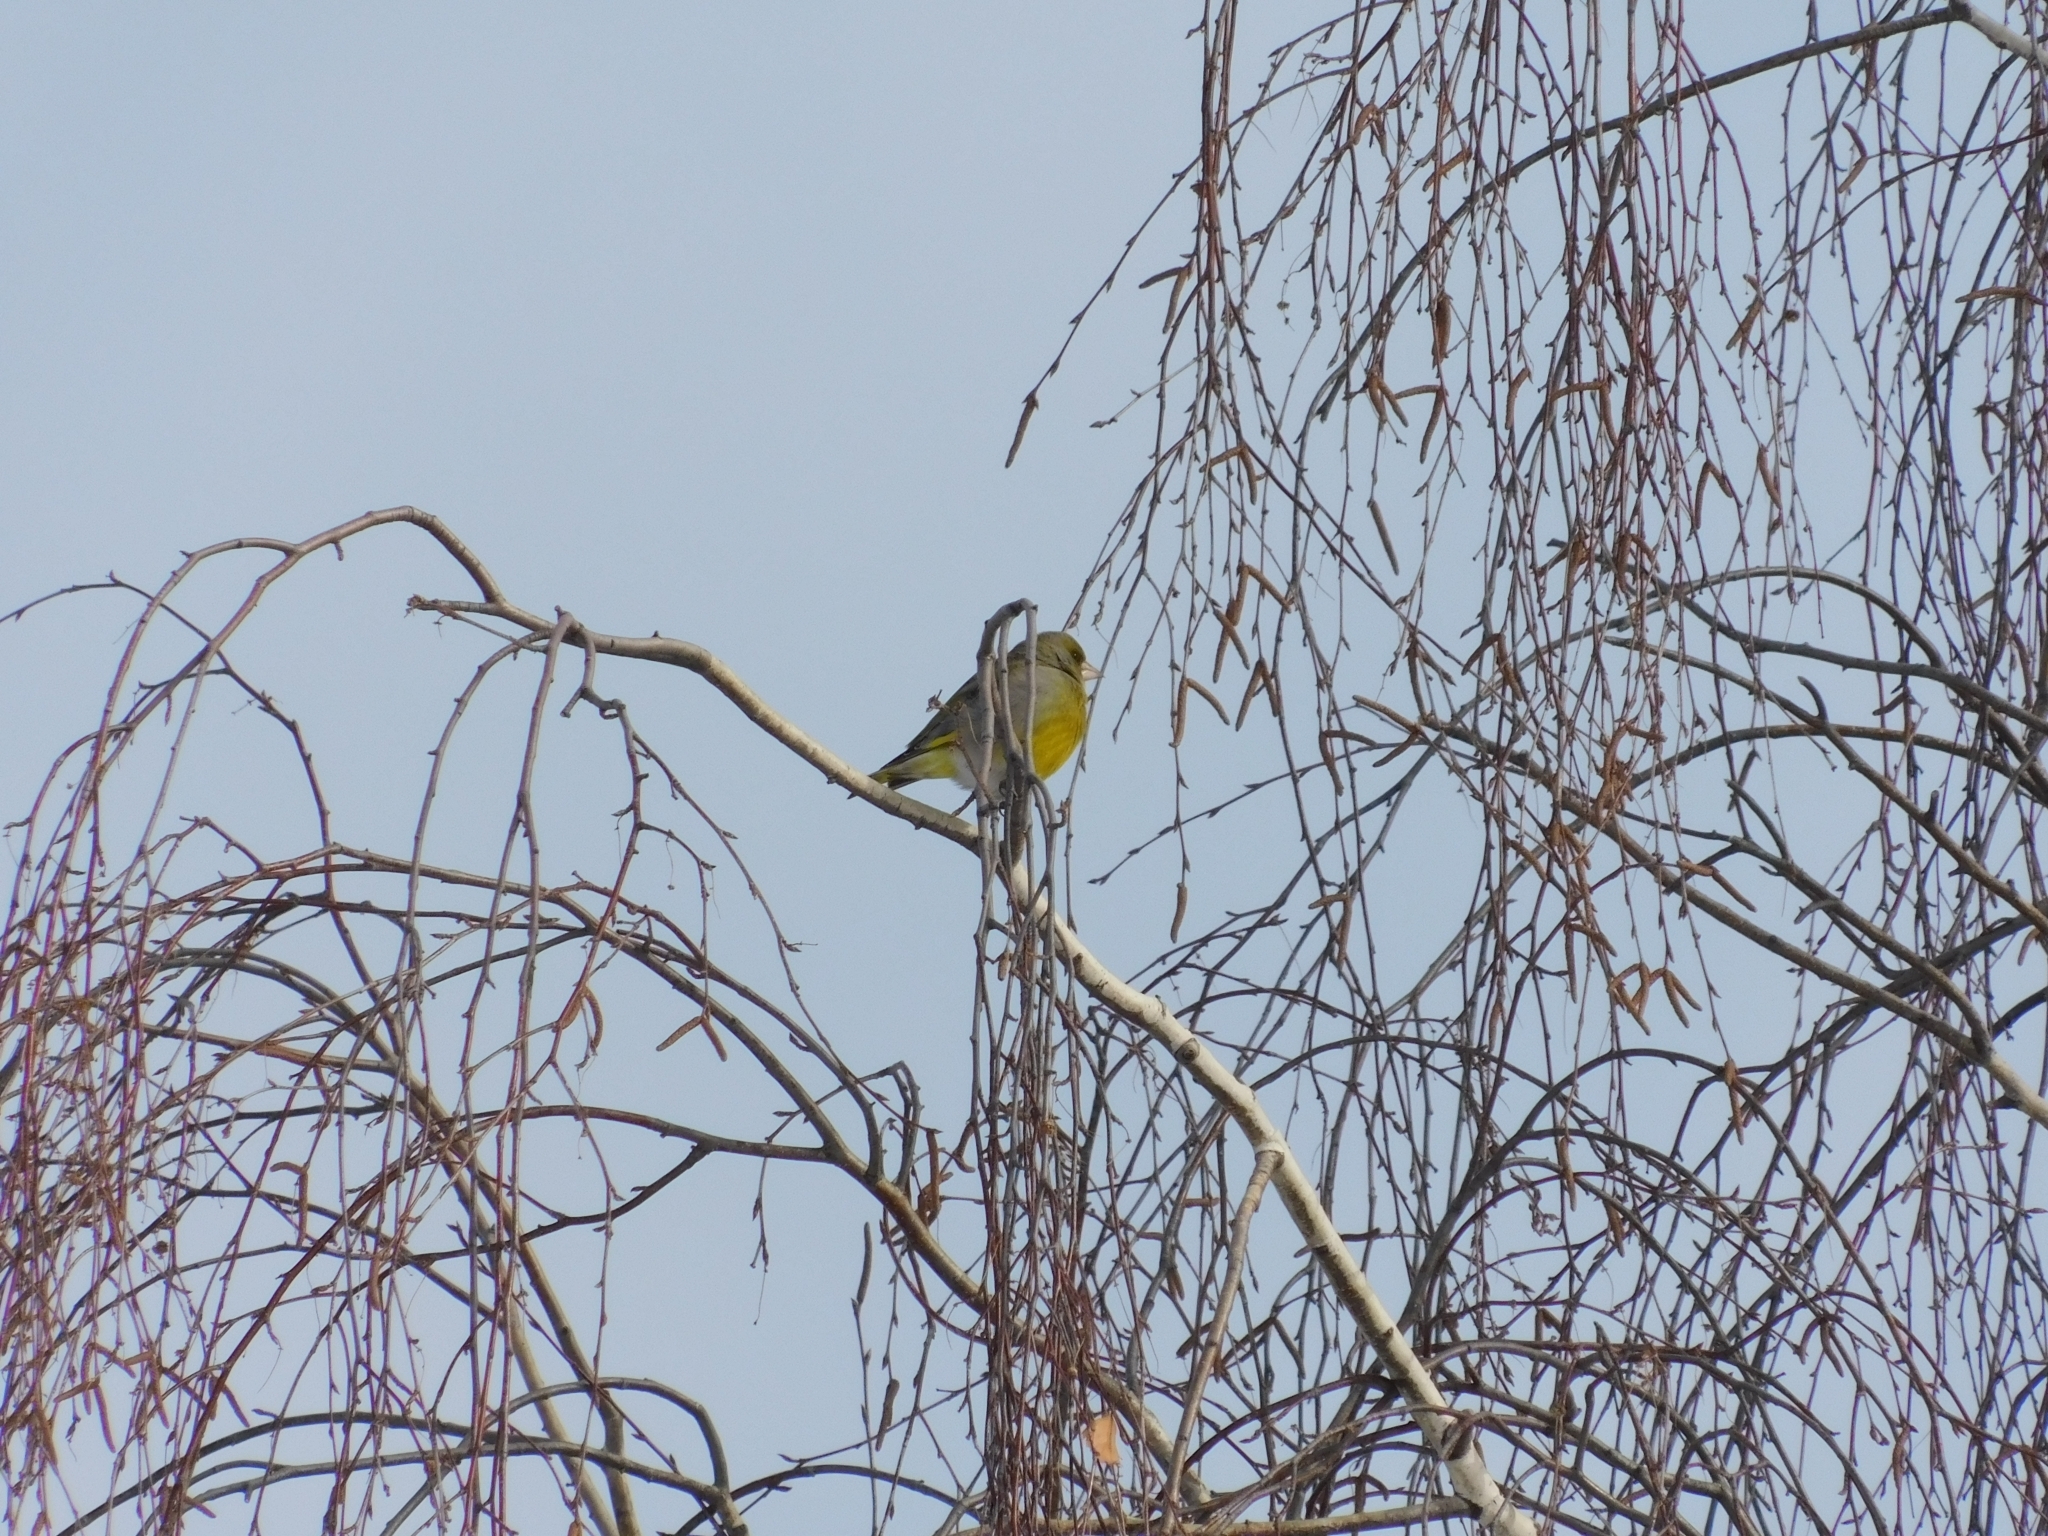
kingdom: Plantae
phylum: Tracheophyta
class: Liliopsida
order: Poales
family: Poaceae
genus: Chloris
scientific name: Chloris chloris
